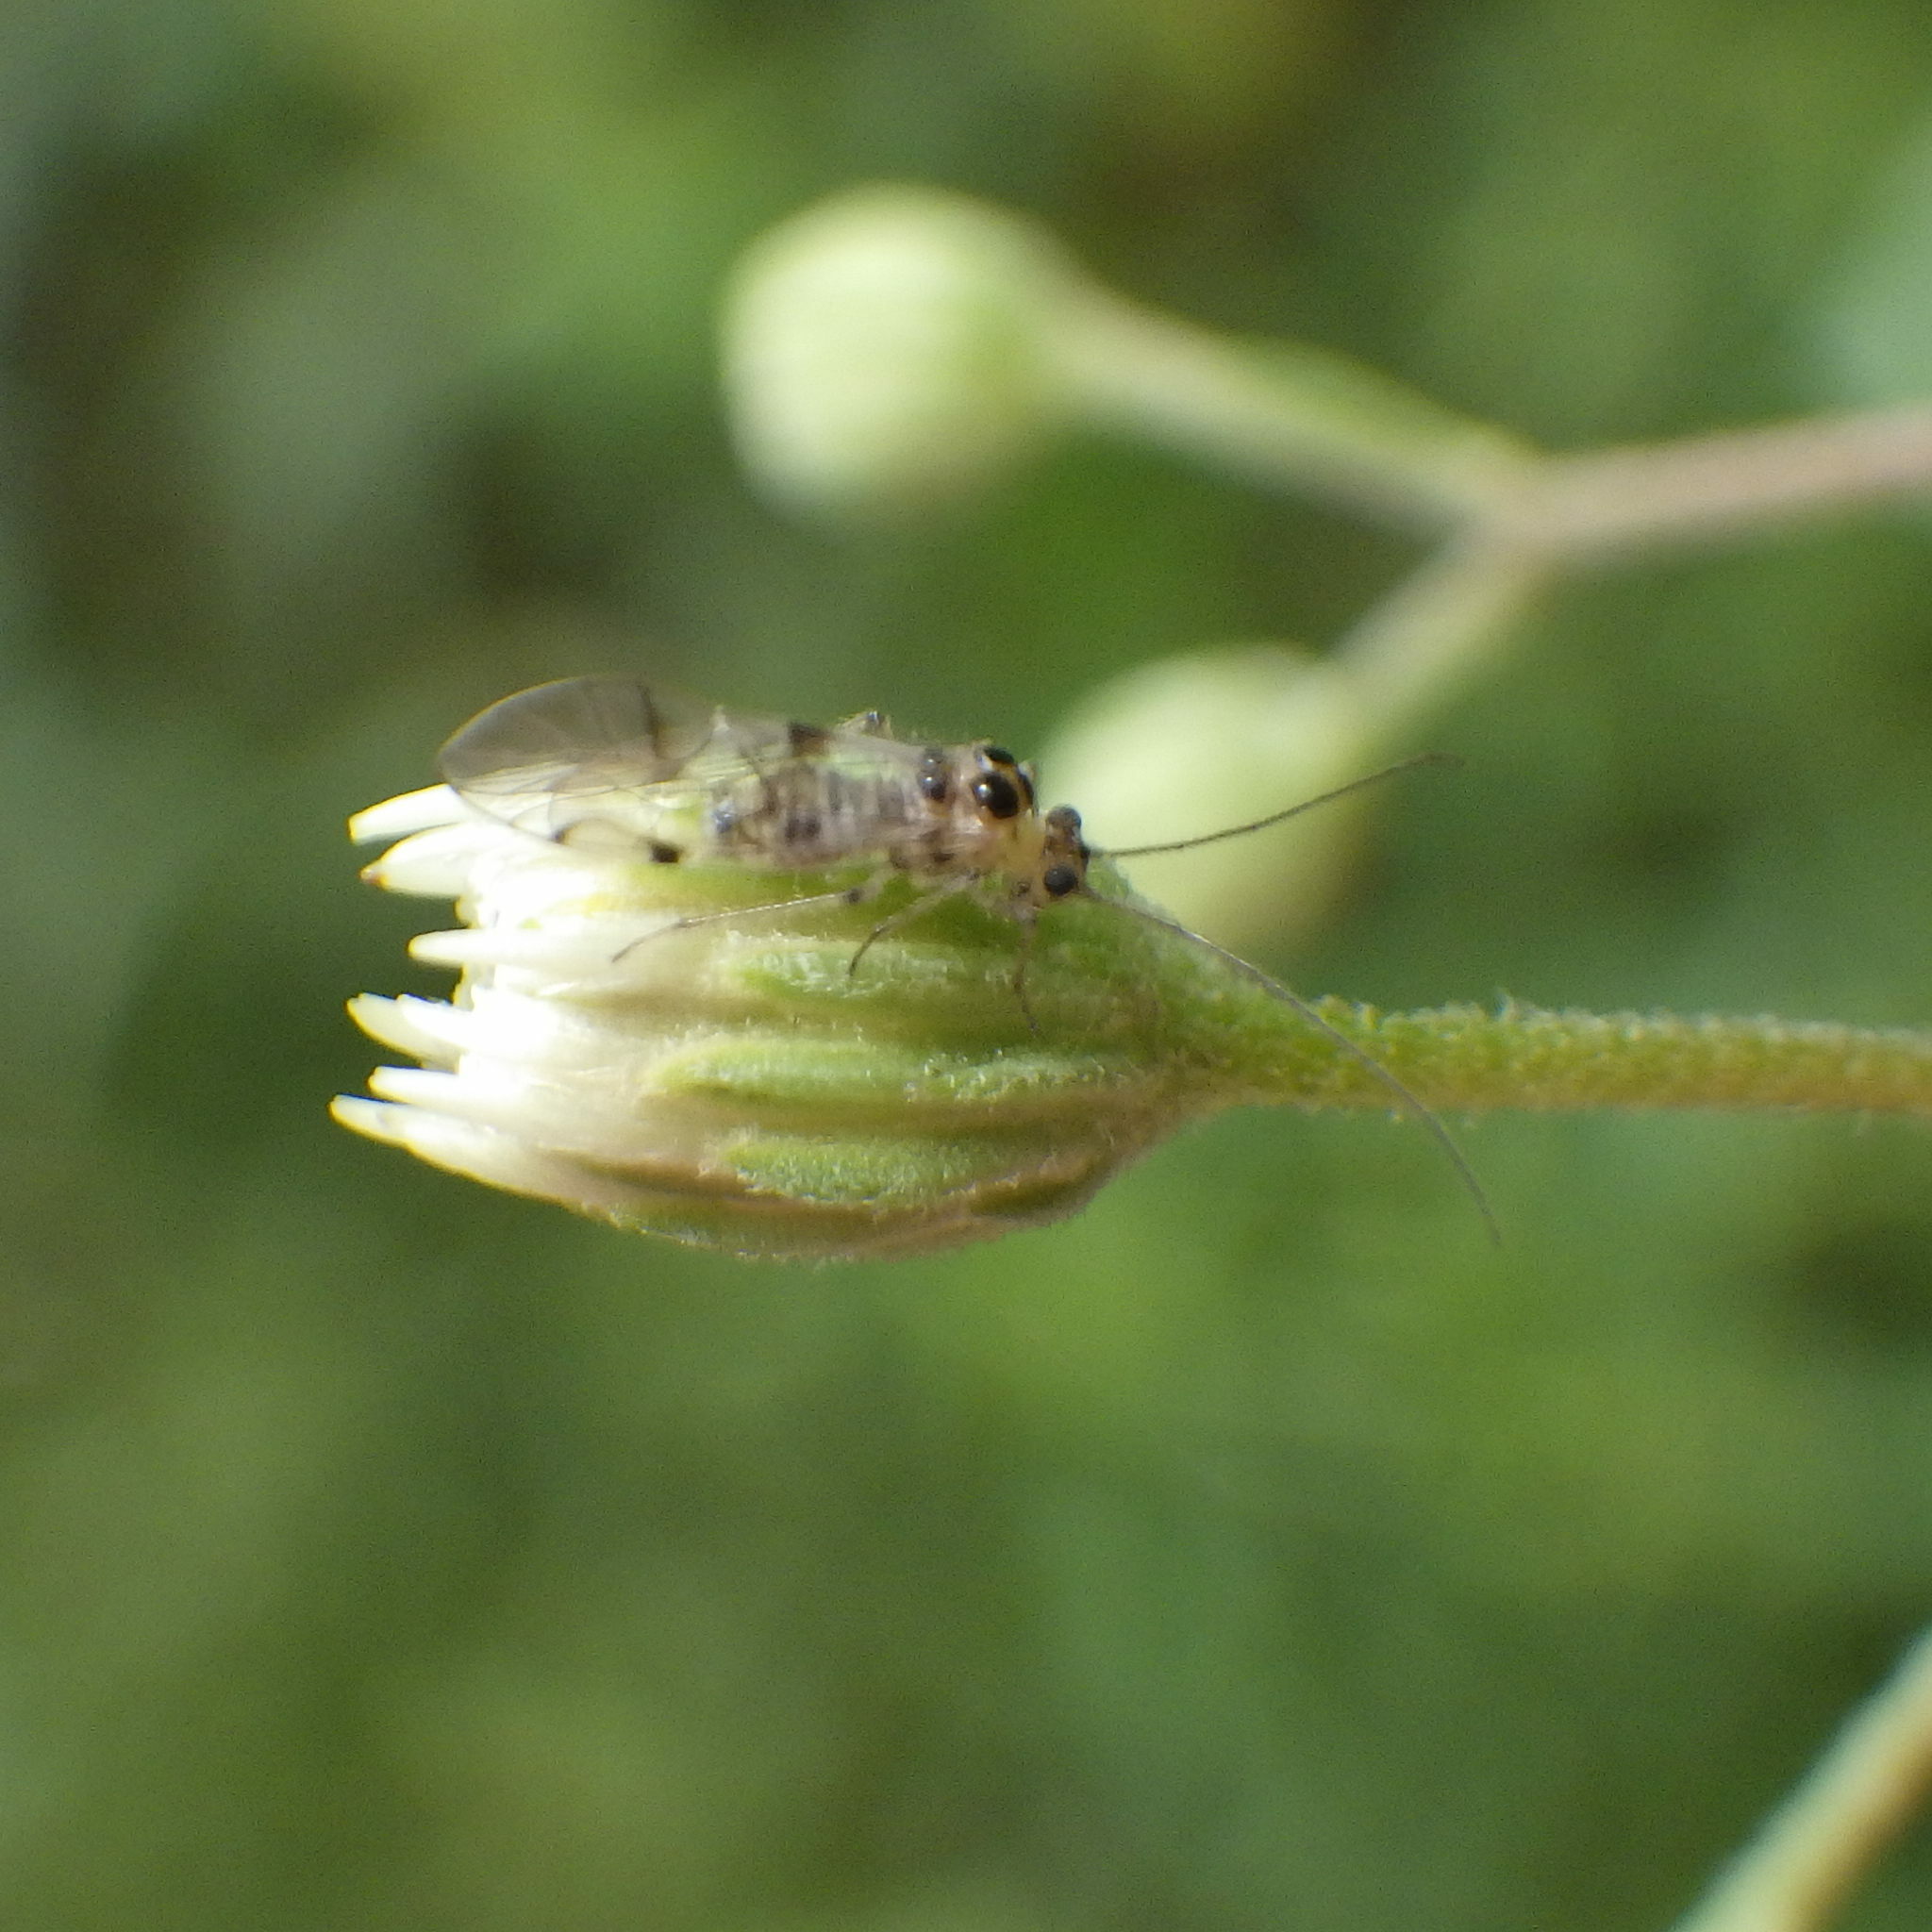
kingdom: Animalia
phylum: Arthropoda
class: Insecta
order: Psocodea
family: Dasydemellidae
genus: Teliapsocus
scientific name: Teliapsocus conterminus
